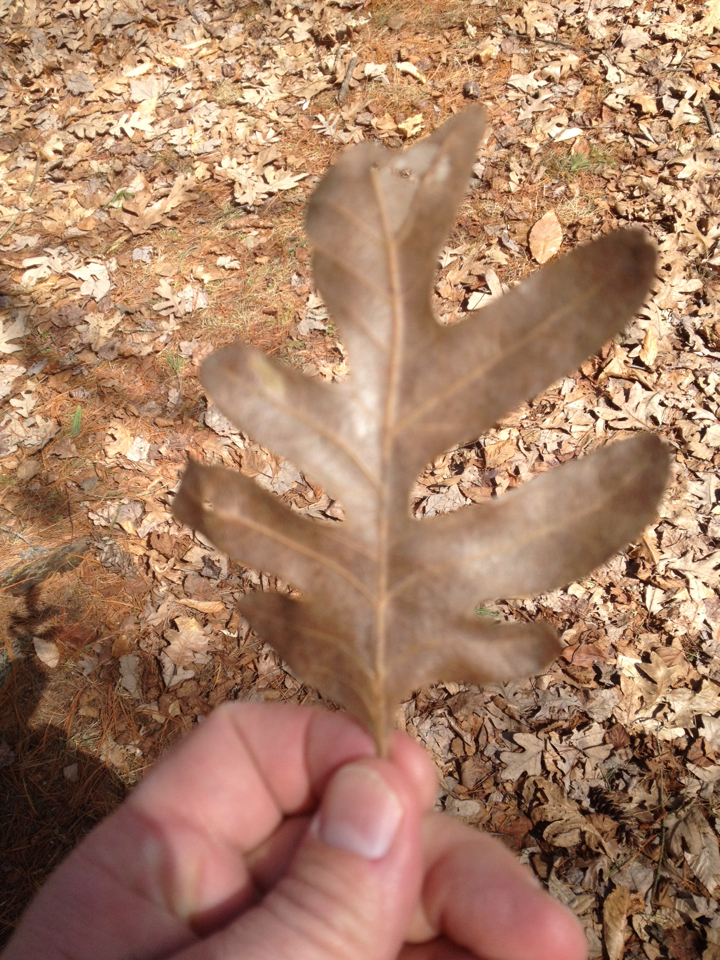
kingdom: Plantae
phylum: Tracheophyta
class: Magnoliopsida
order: Fagales
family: Fagaceae
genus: Quercus
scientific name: Quercus alba
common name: White oak
